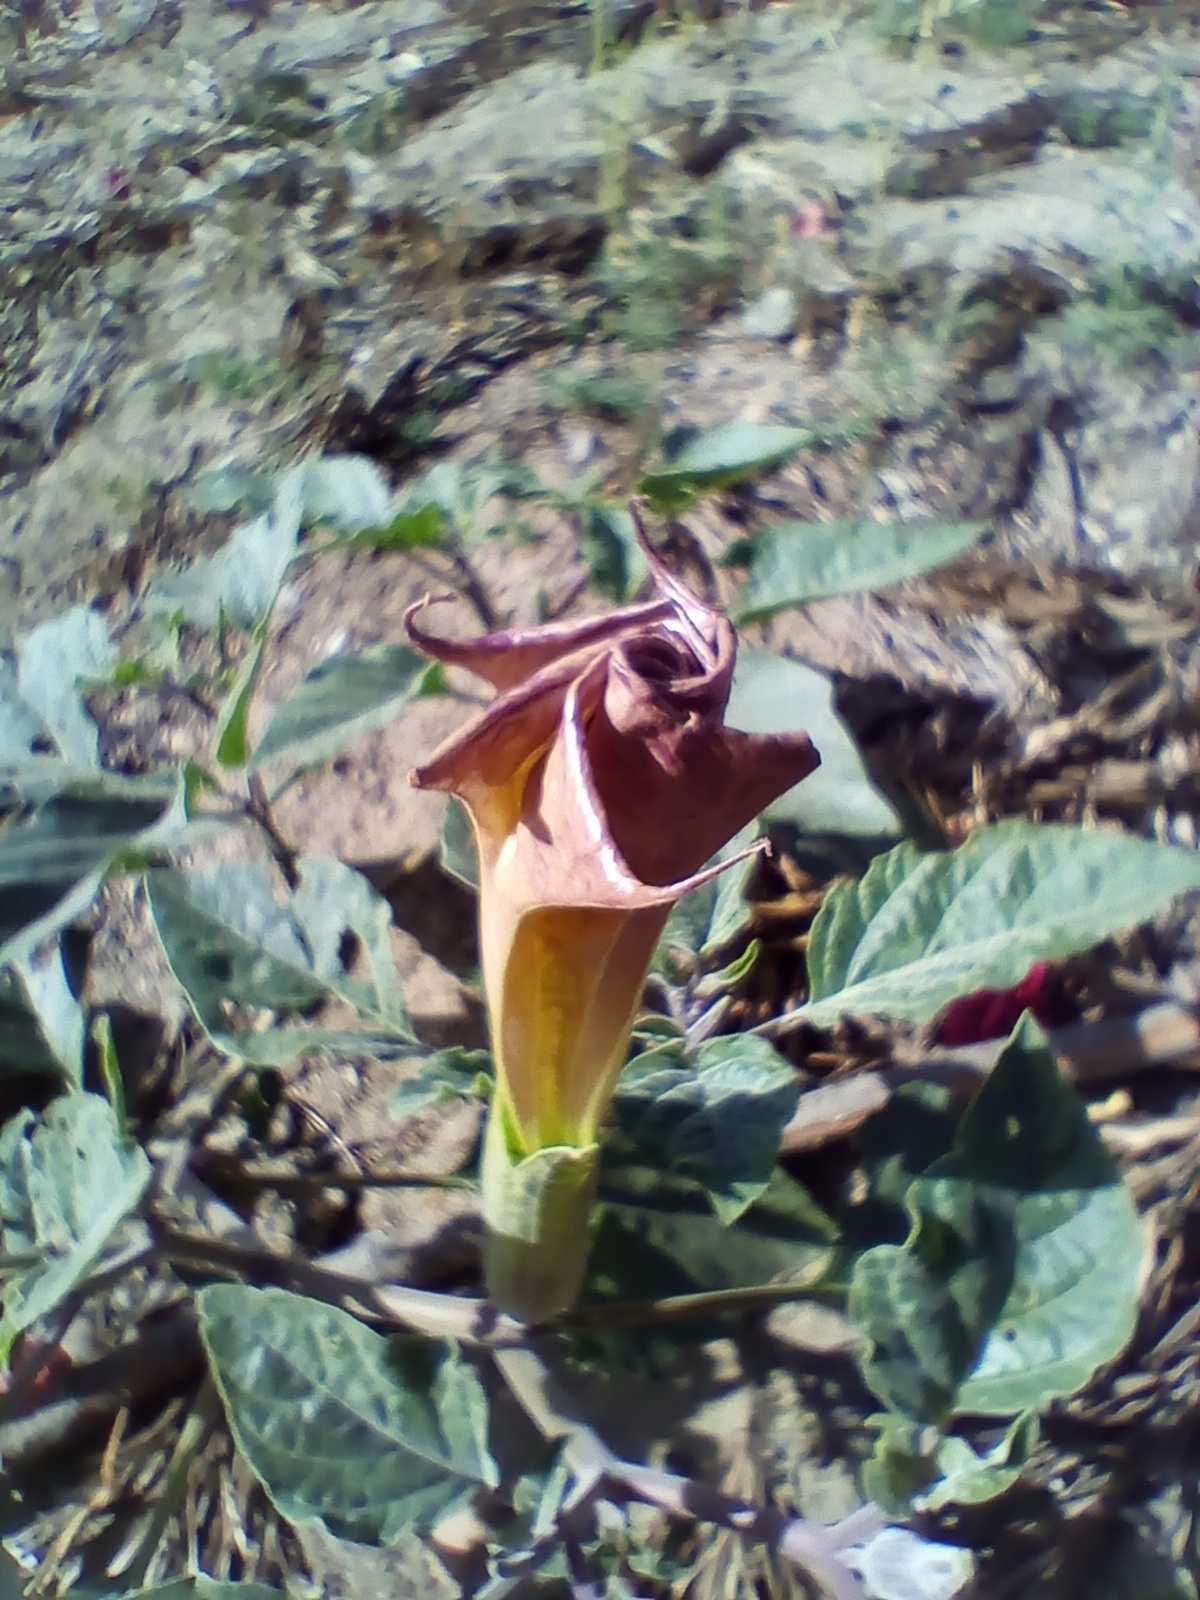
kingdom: Plantae
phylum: Tracheophyta
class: Magnoliopsida
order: Solanales
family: Solanaceae
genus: Datura
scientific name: Datura wrightii
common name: Sacred thorn-apple
